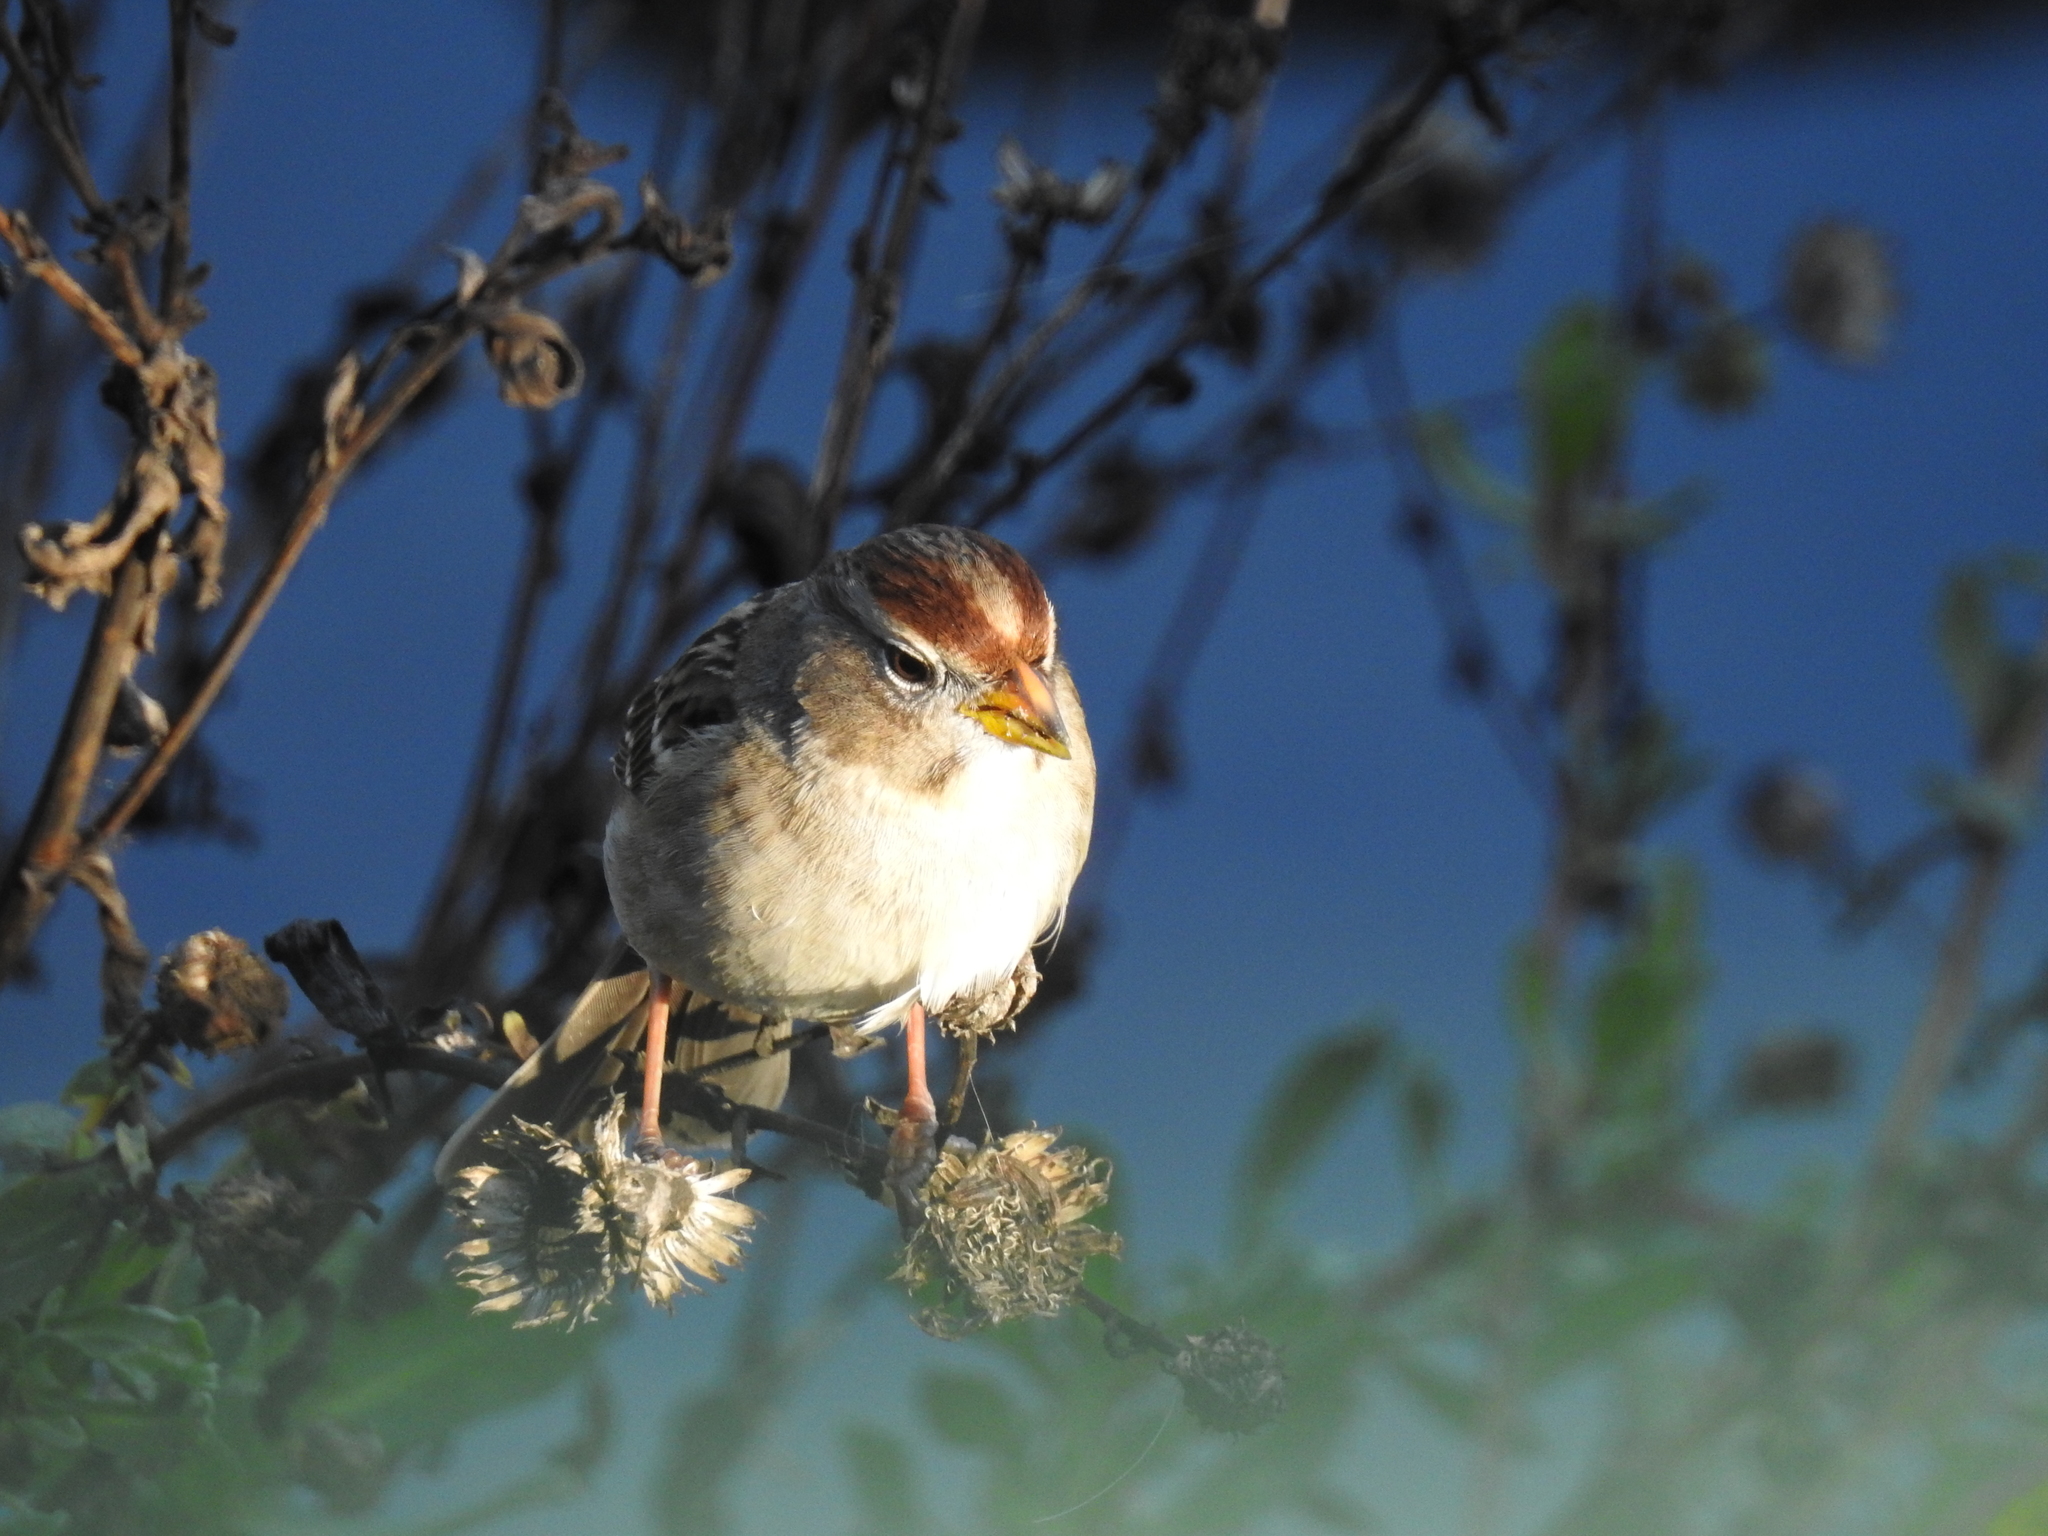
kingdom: Animalia
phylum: Chordata
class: Aves
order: Passeriformes
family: Passerellidae
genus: Zonotrichia
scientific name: Zonotrichia leucophrys
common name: White-crowned sparrow
